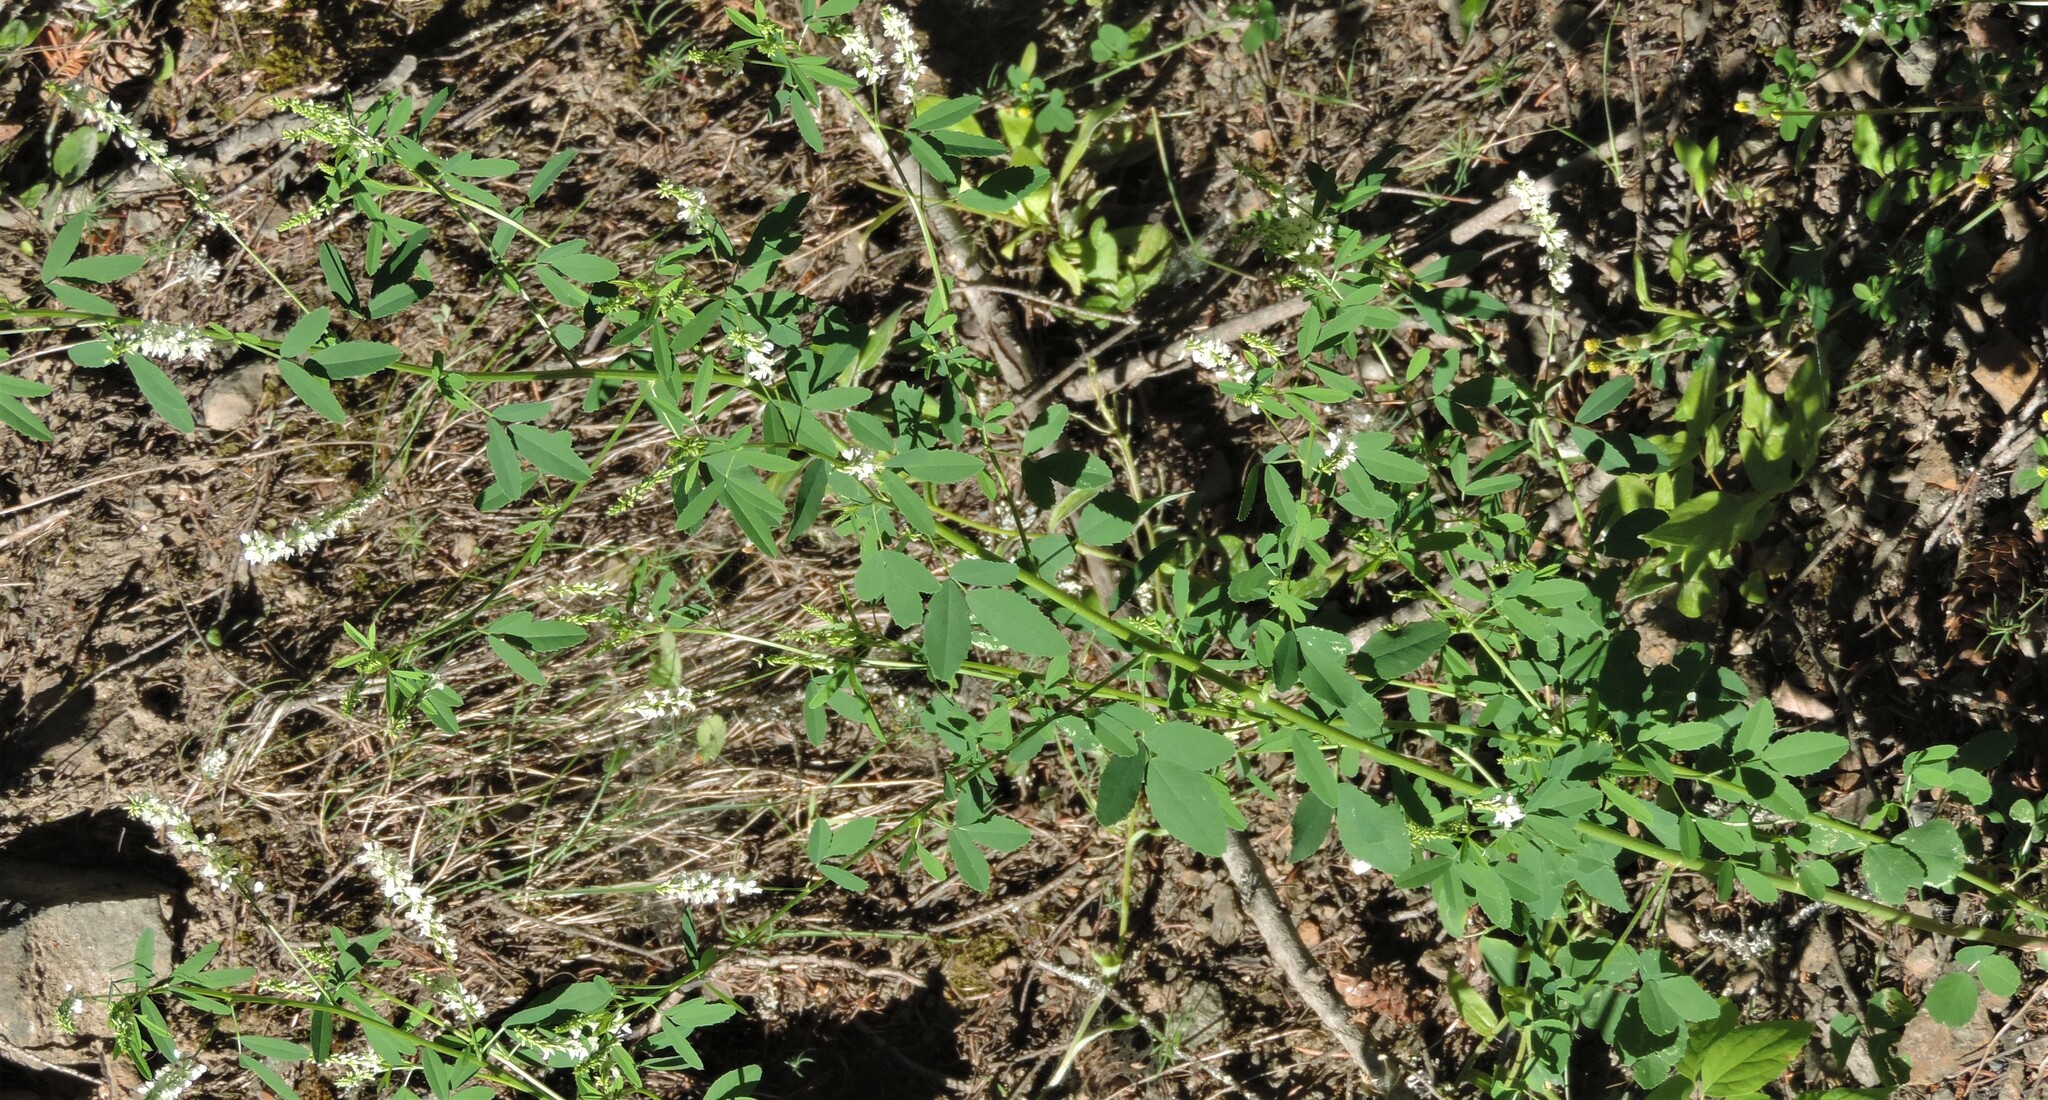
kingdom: Plantae
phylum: Tracheophyta
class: Magnoliopsida
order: Fabales
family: Fabaceae
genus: Melilotus
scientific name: Melilotus albus
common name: White melilot
